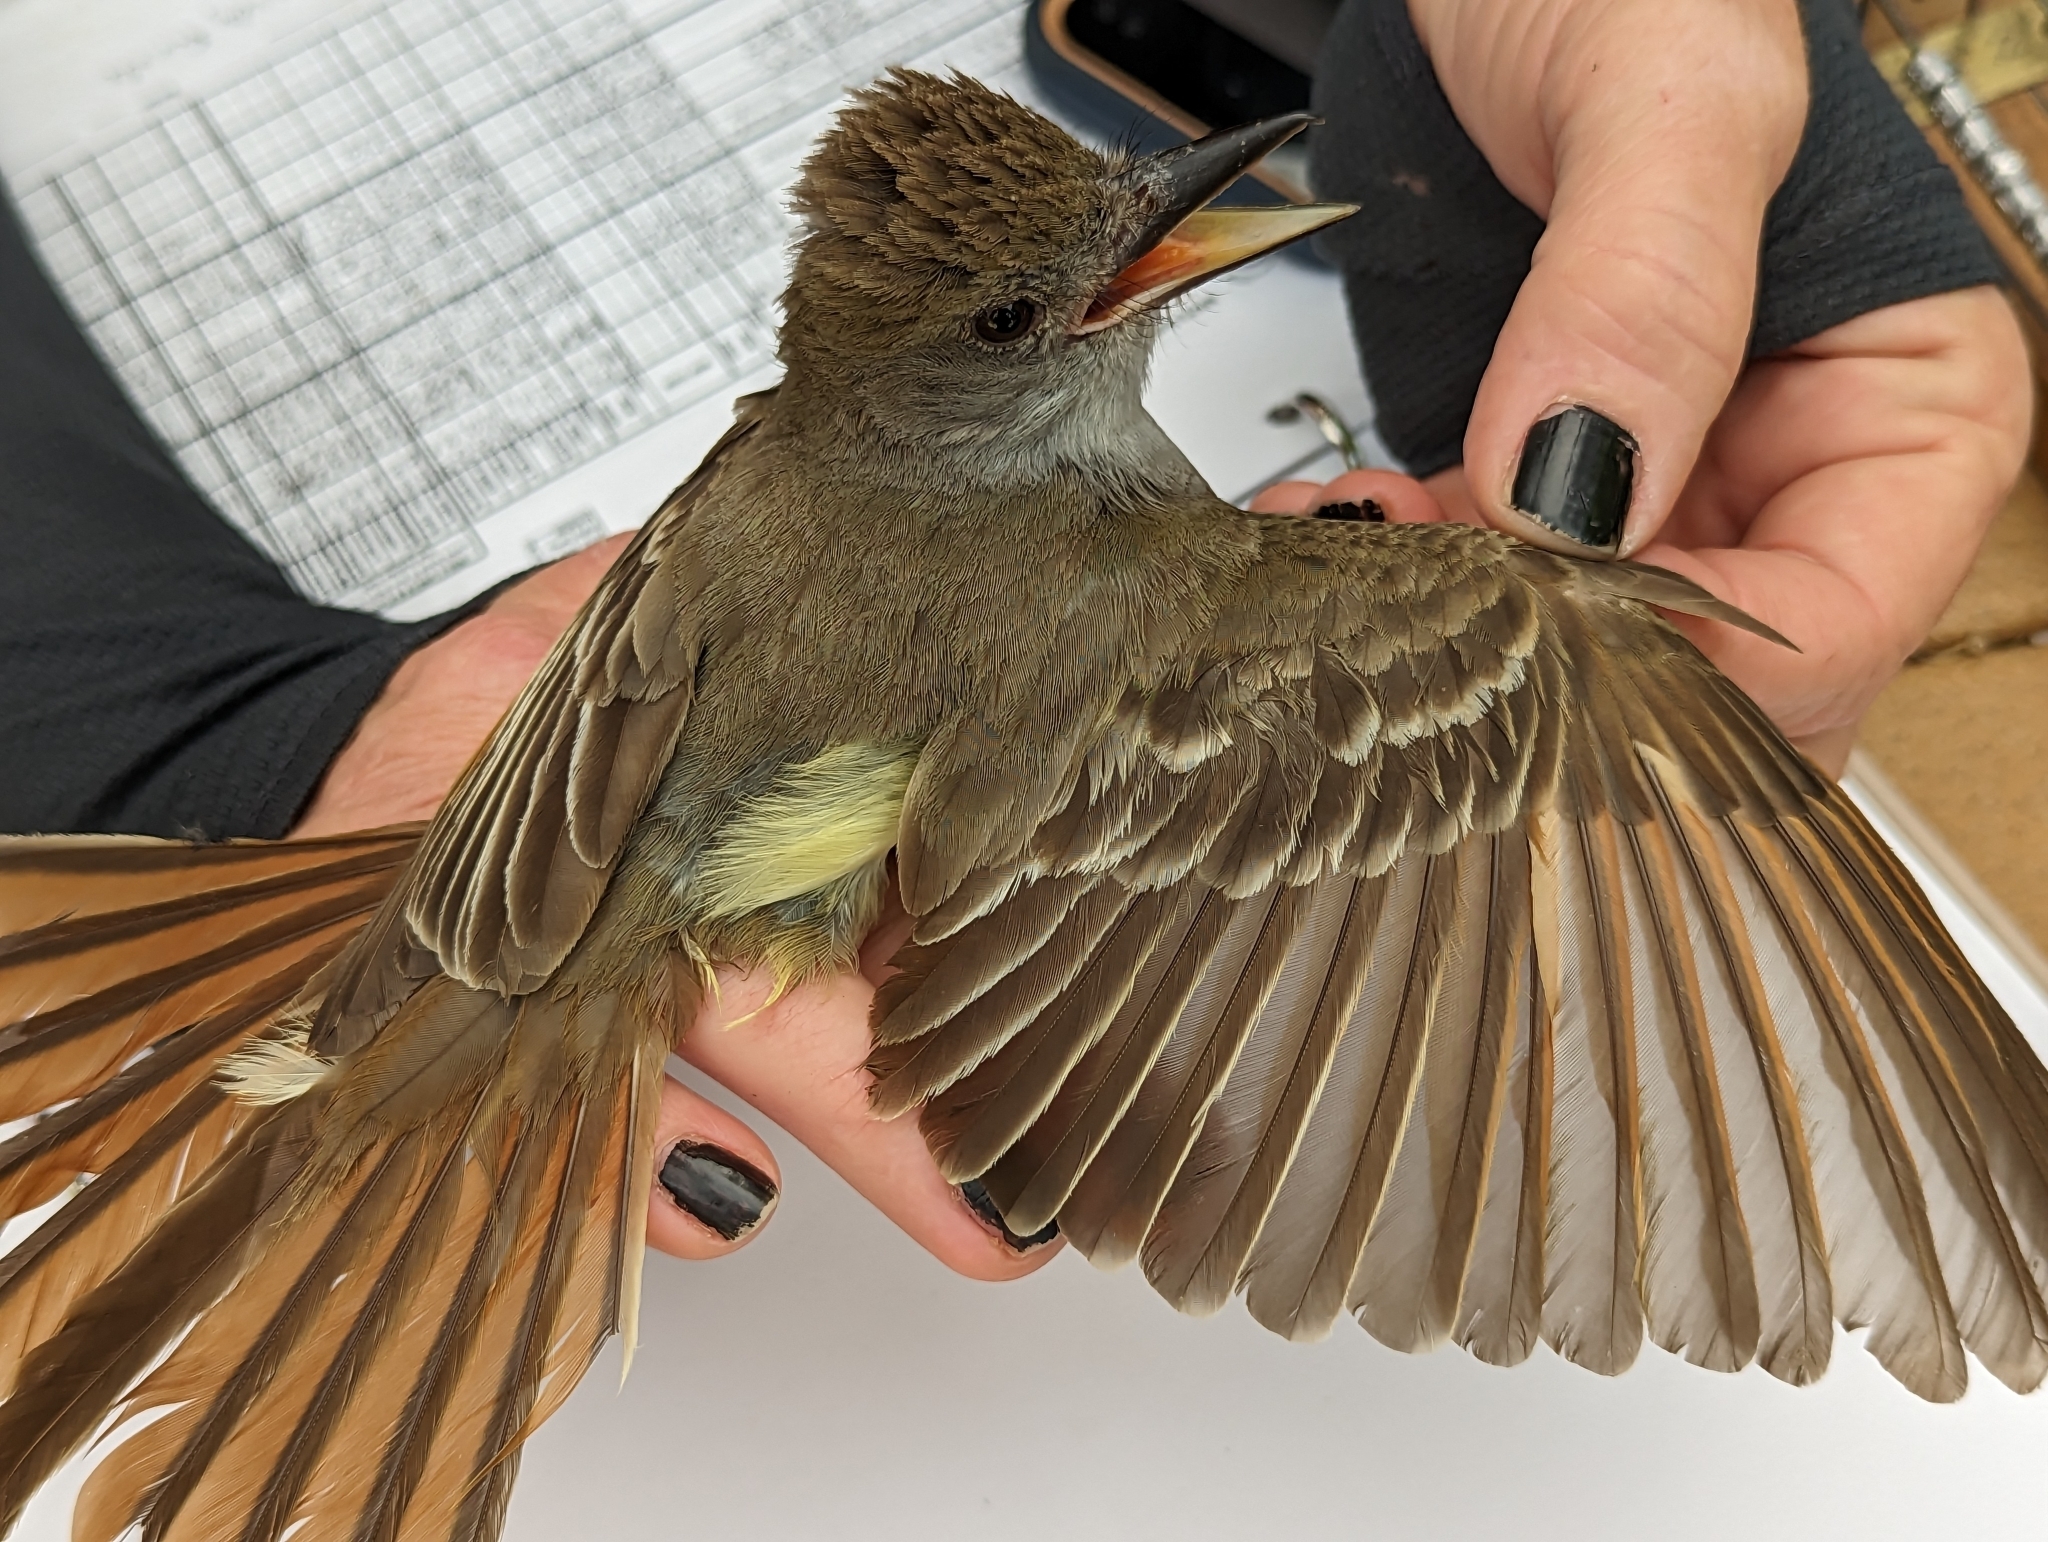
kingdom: Animalia
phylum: Chordata
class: Aves
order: Passeriformes
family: Tyrannidae
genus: Myiarchus
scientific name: Myiarchus tyrannulus
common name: Brown-crested flycatcher
